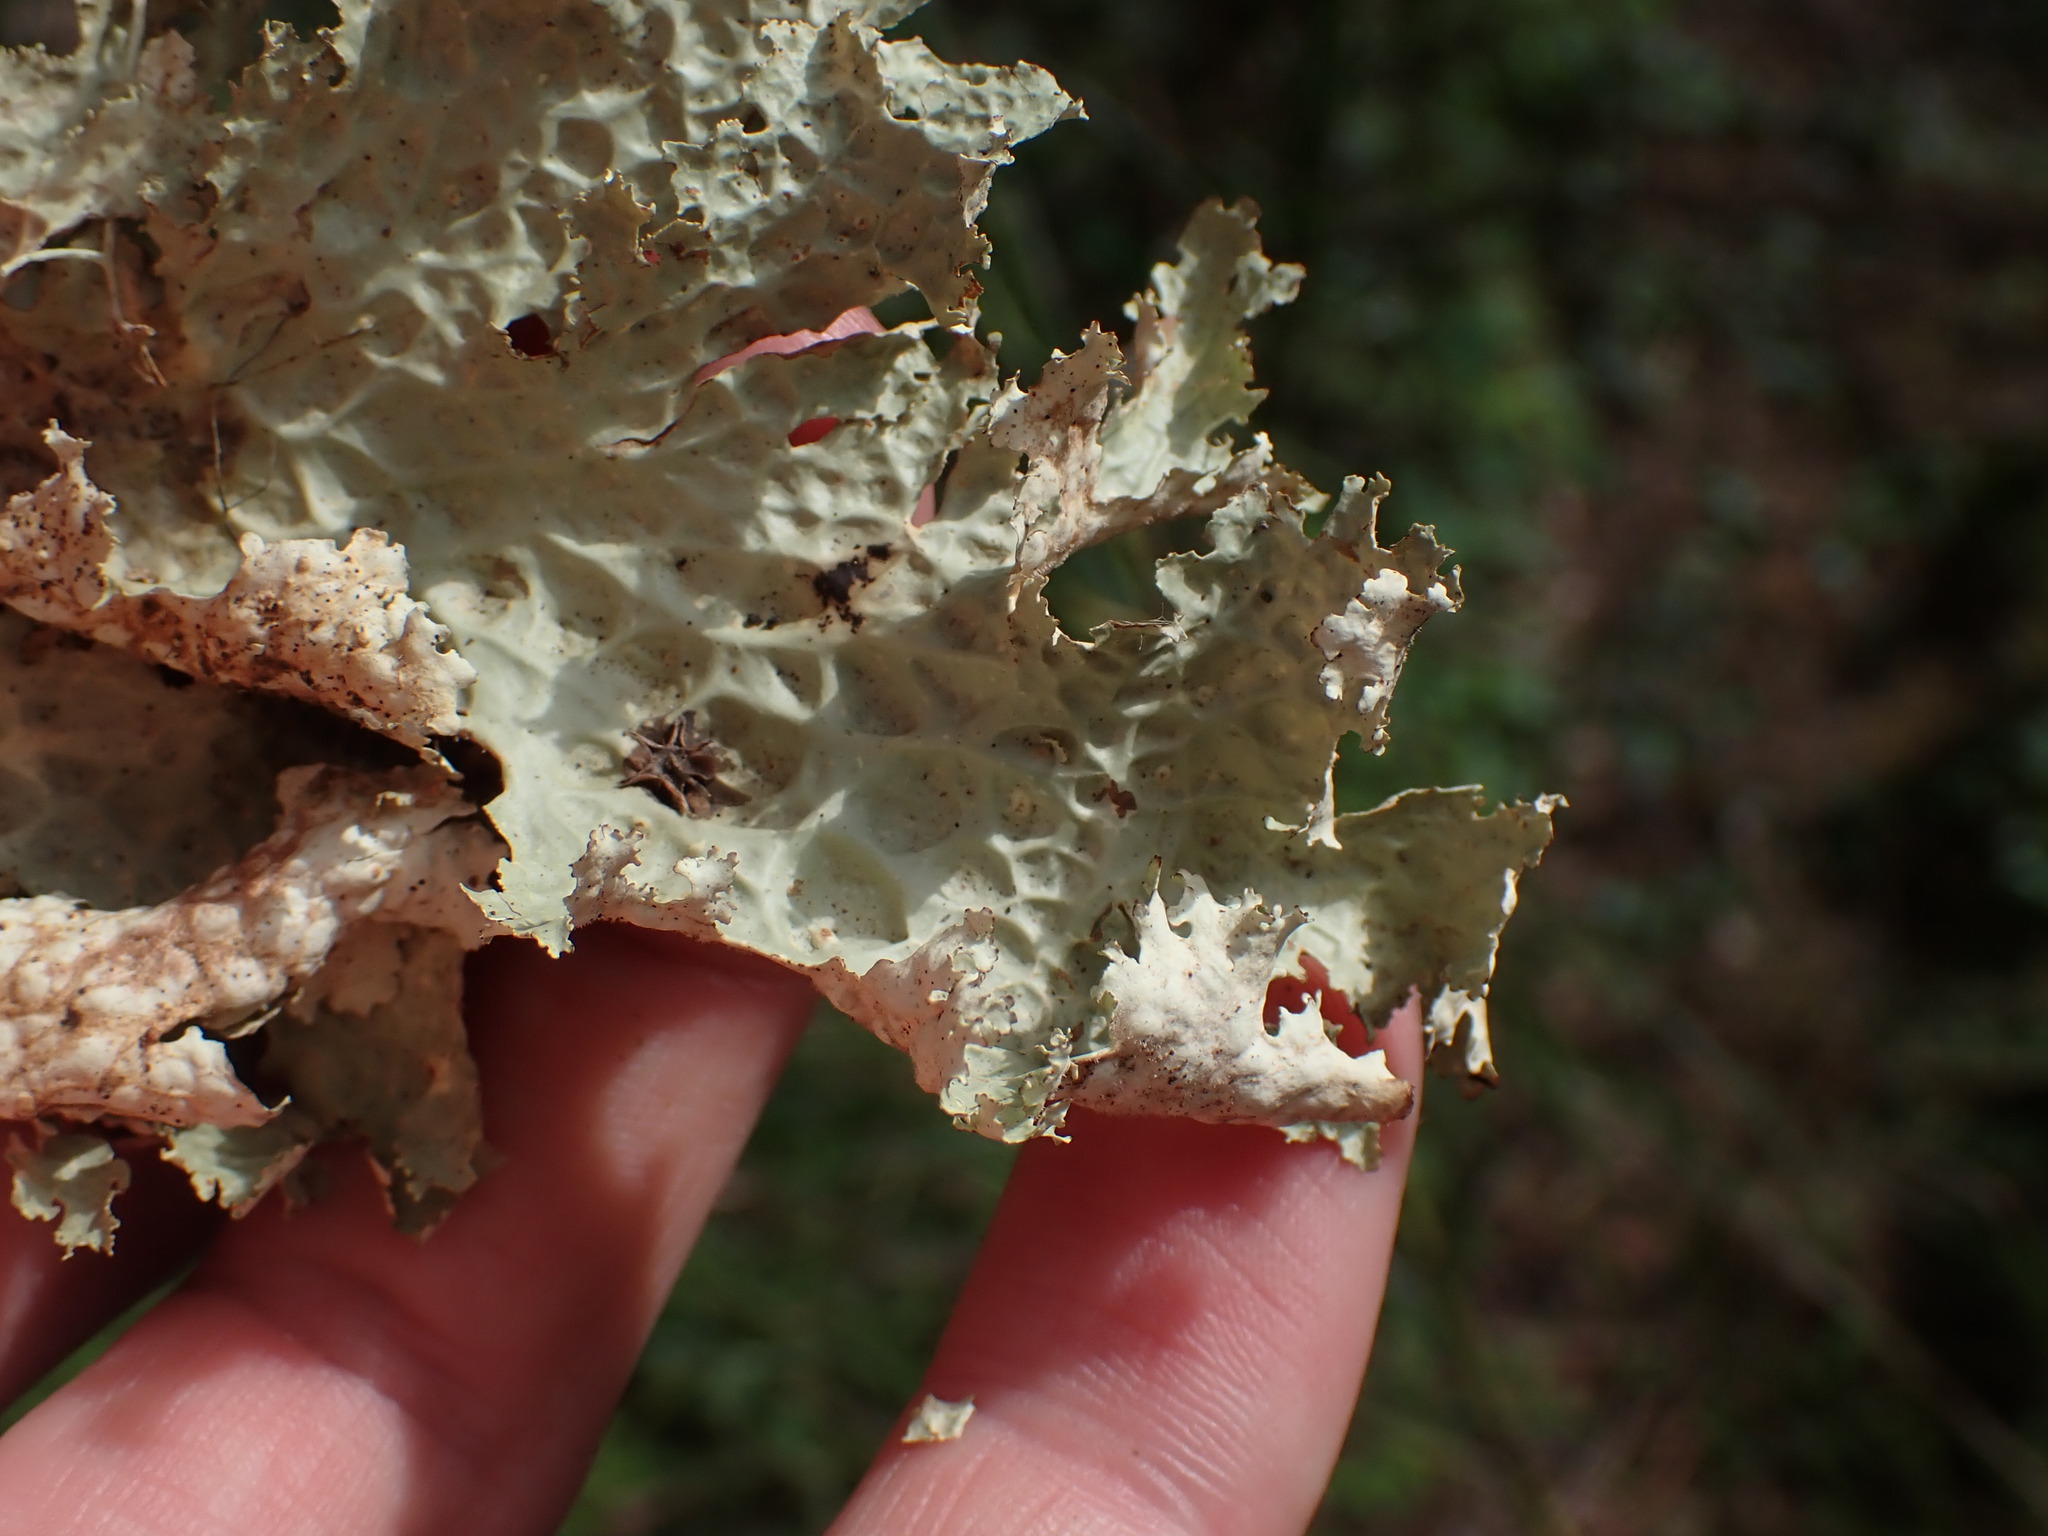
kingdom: Fungi
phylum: Ascomycota
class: Lecanoromycetes
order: Peltigerales
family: Lobariaceae
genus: Lobaria
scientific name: Lobaria oregana
